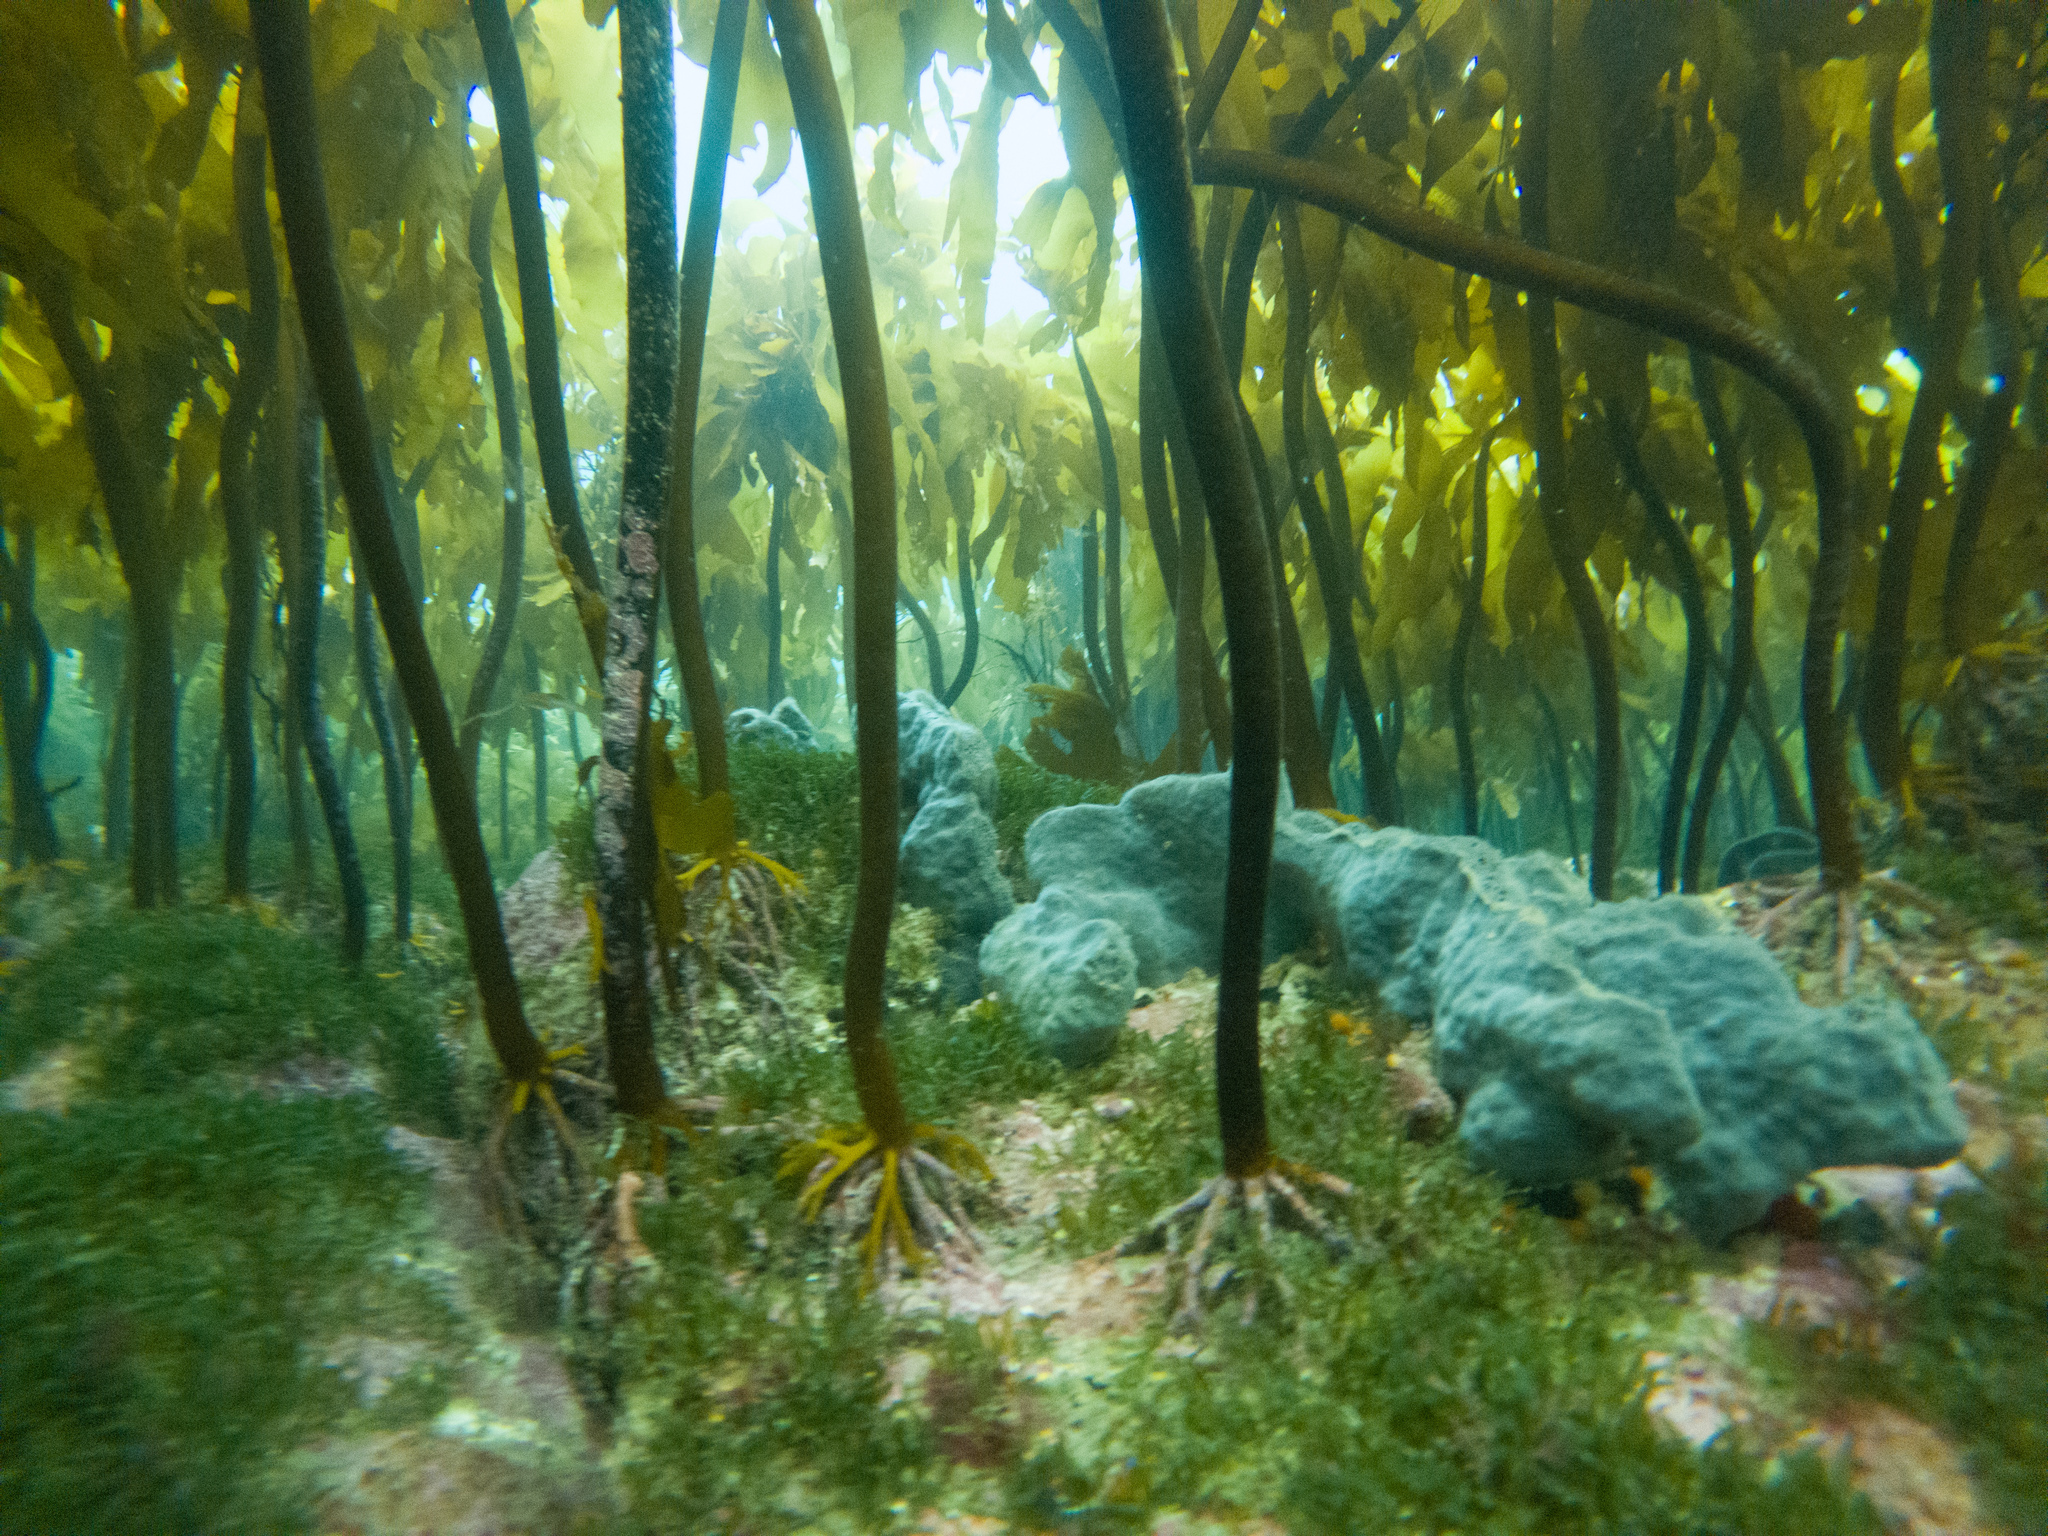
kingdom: Chromista
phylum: Ochrophyta
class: Phaeophyceae
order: Laminariales
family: Lessoniaceae
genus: Ecklonia
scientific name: Ecklonia radiata
